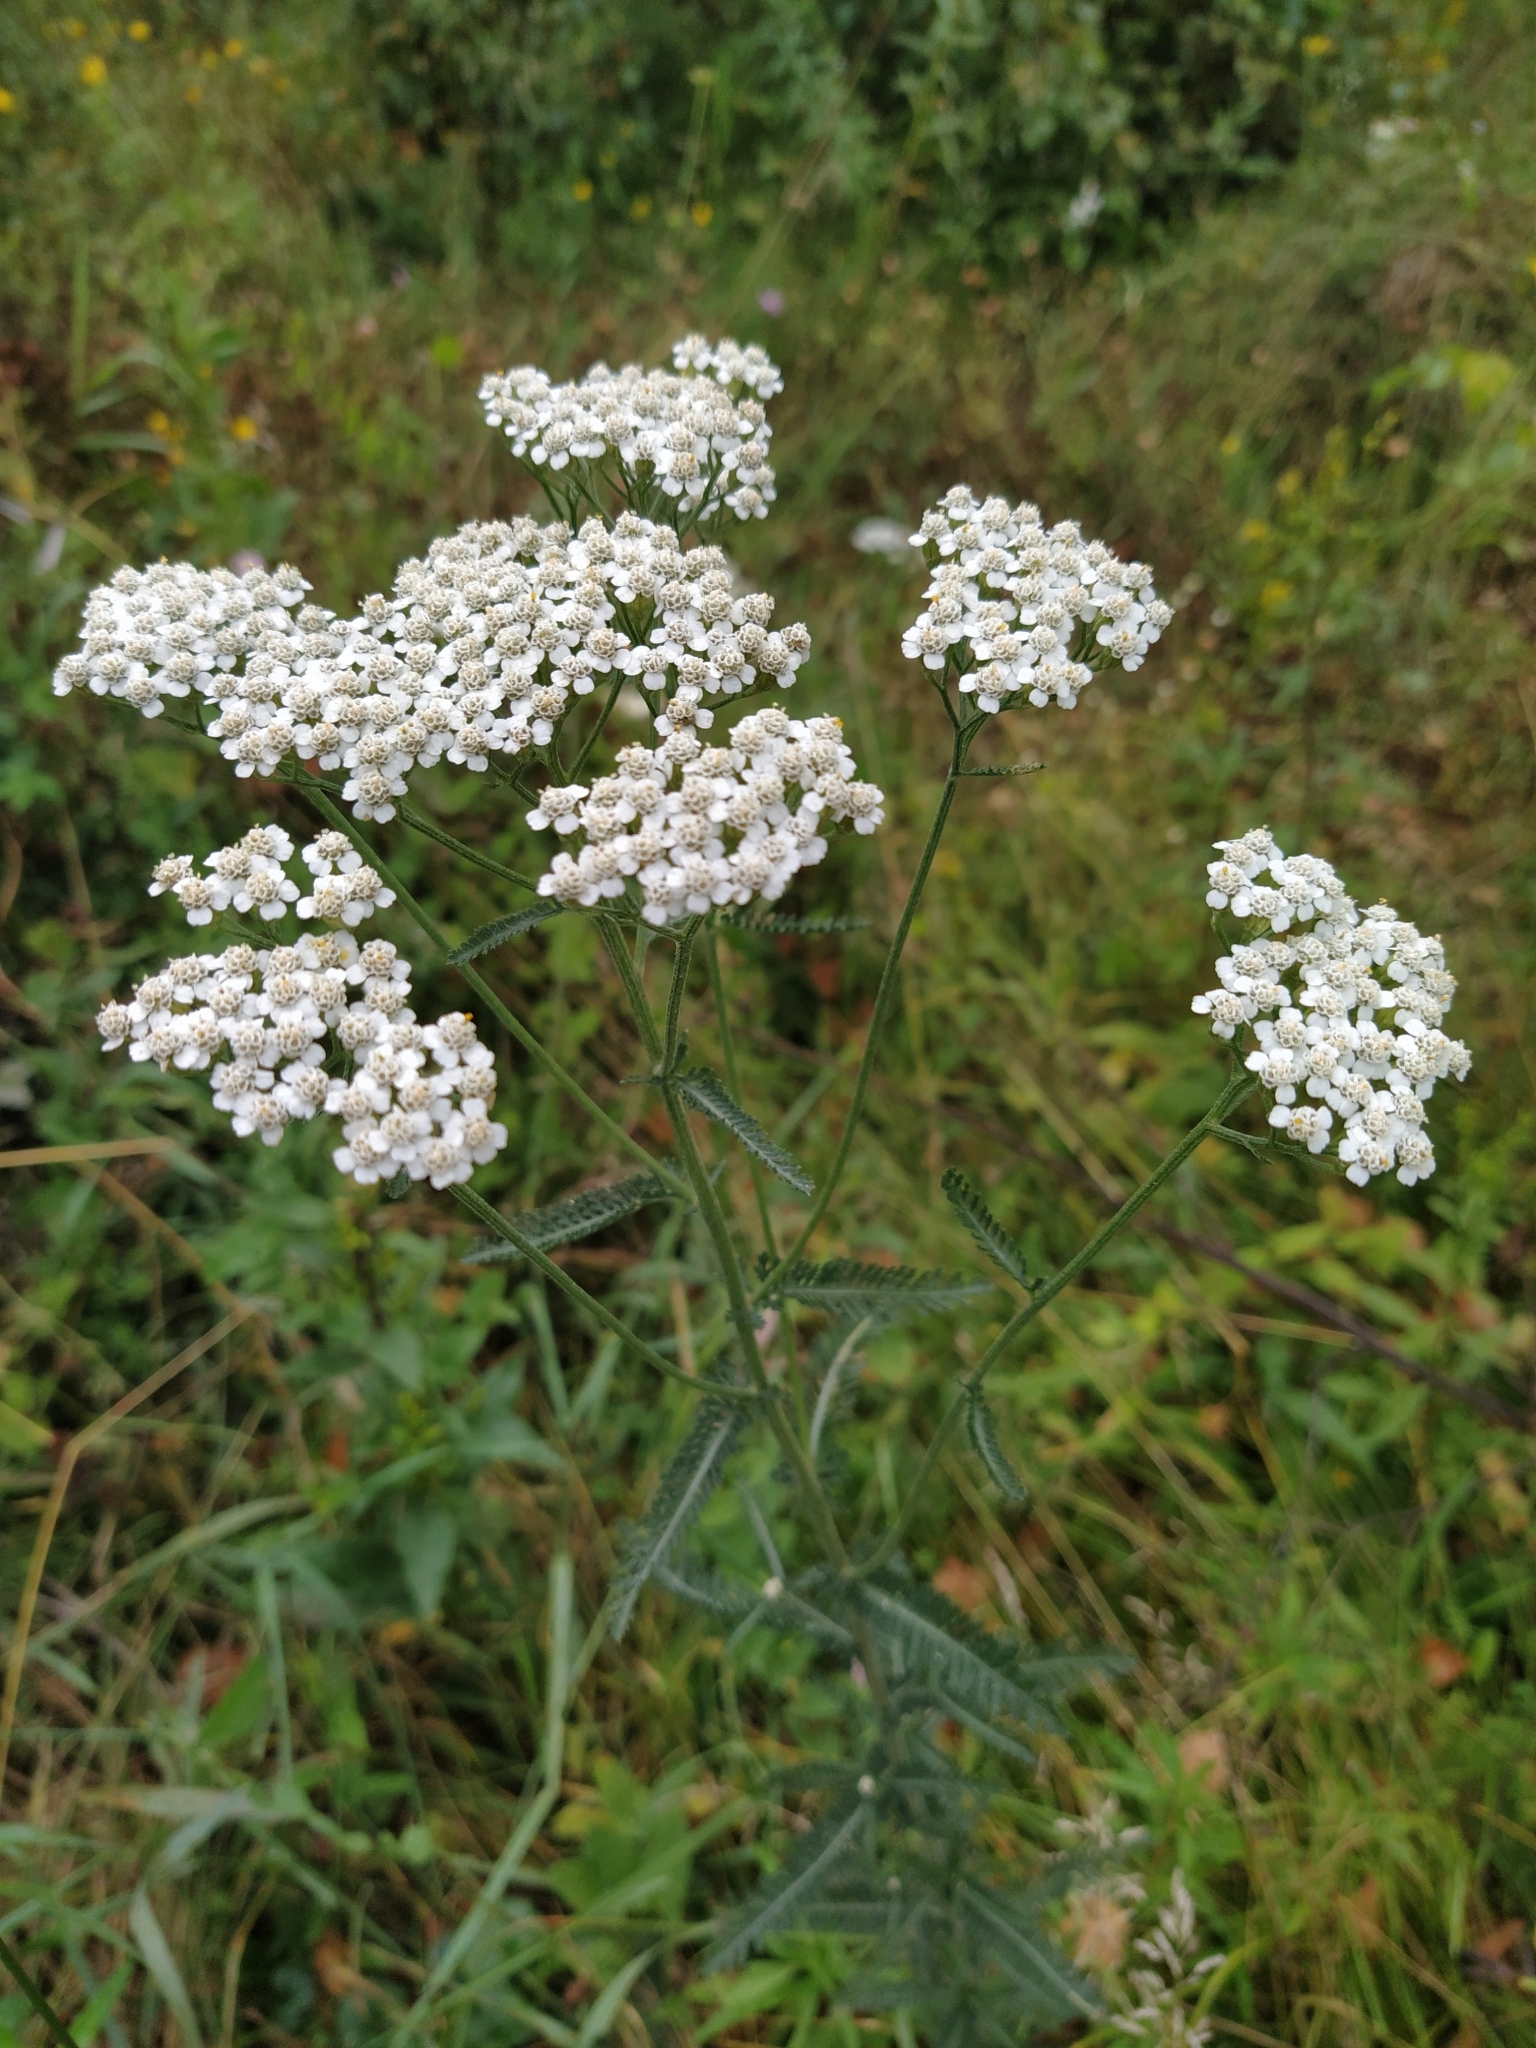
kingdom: Plantae
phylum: Tracheophyta
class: Magnoliopsida
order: Asterales
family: Asteraceae
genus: Achillea
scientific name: Achillea millefolium
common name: Yarrow
